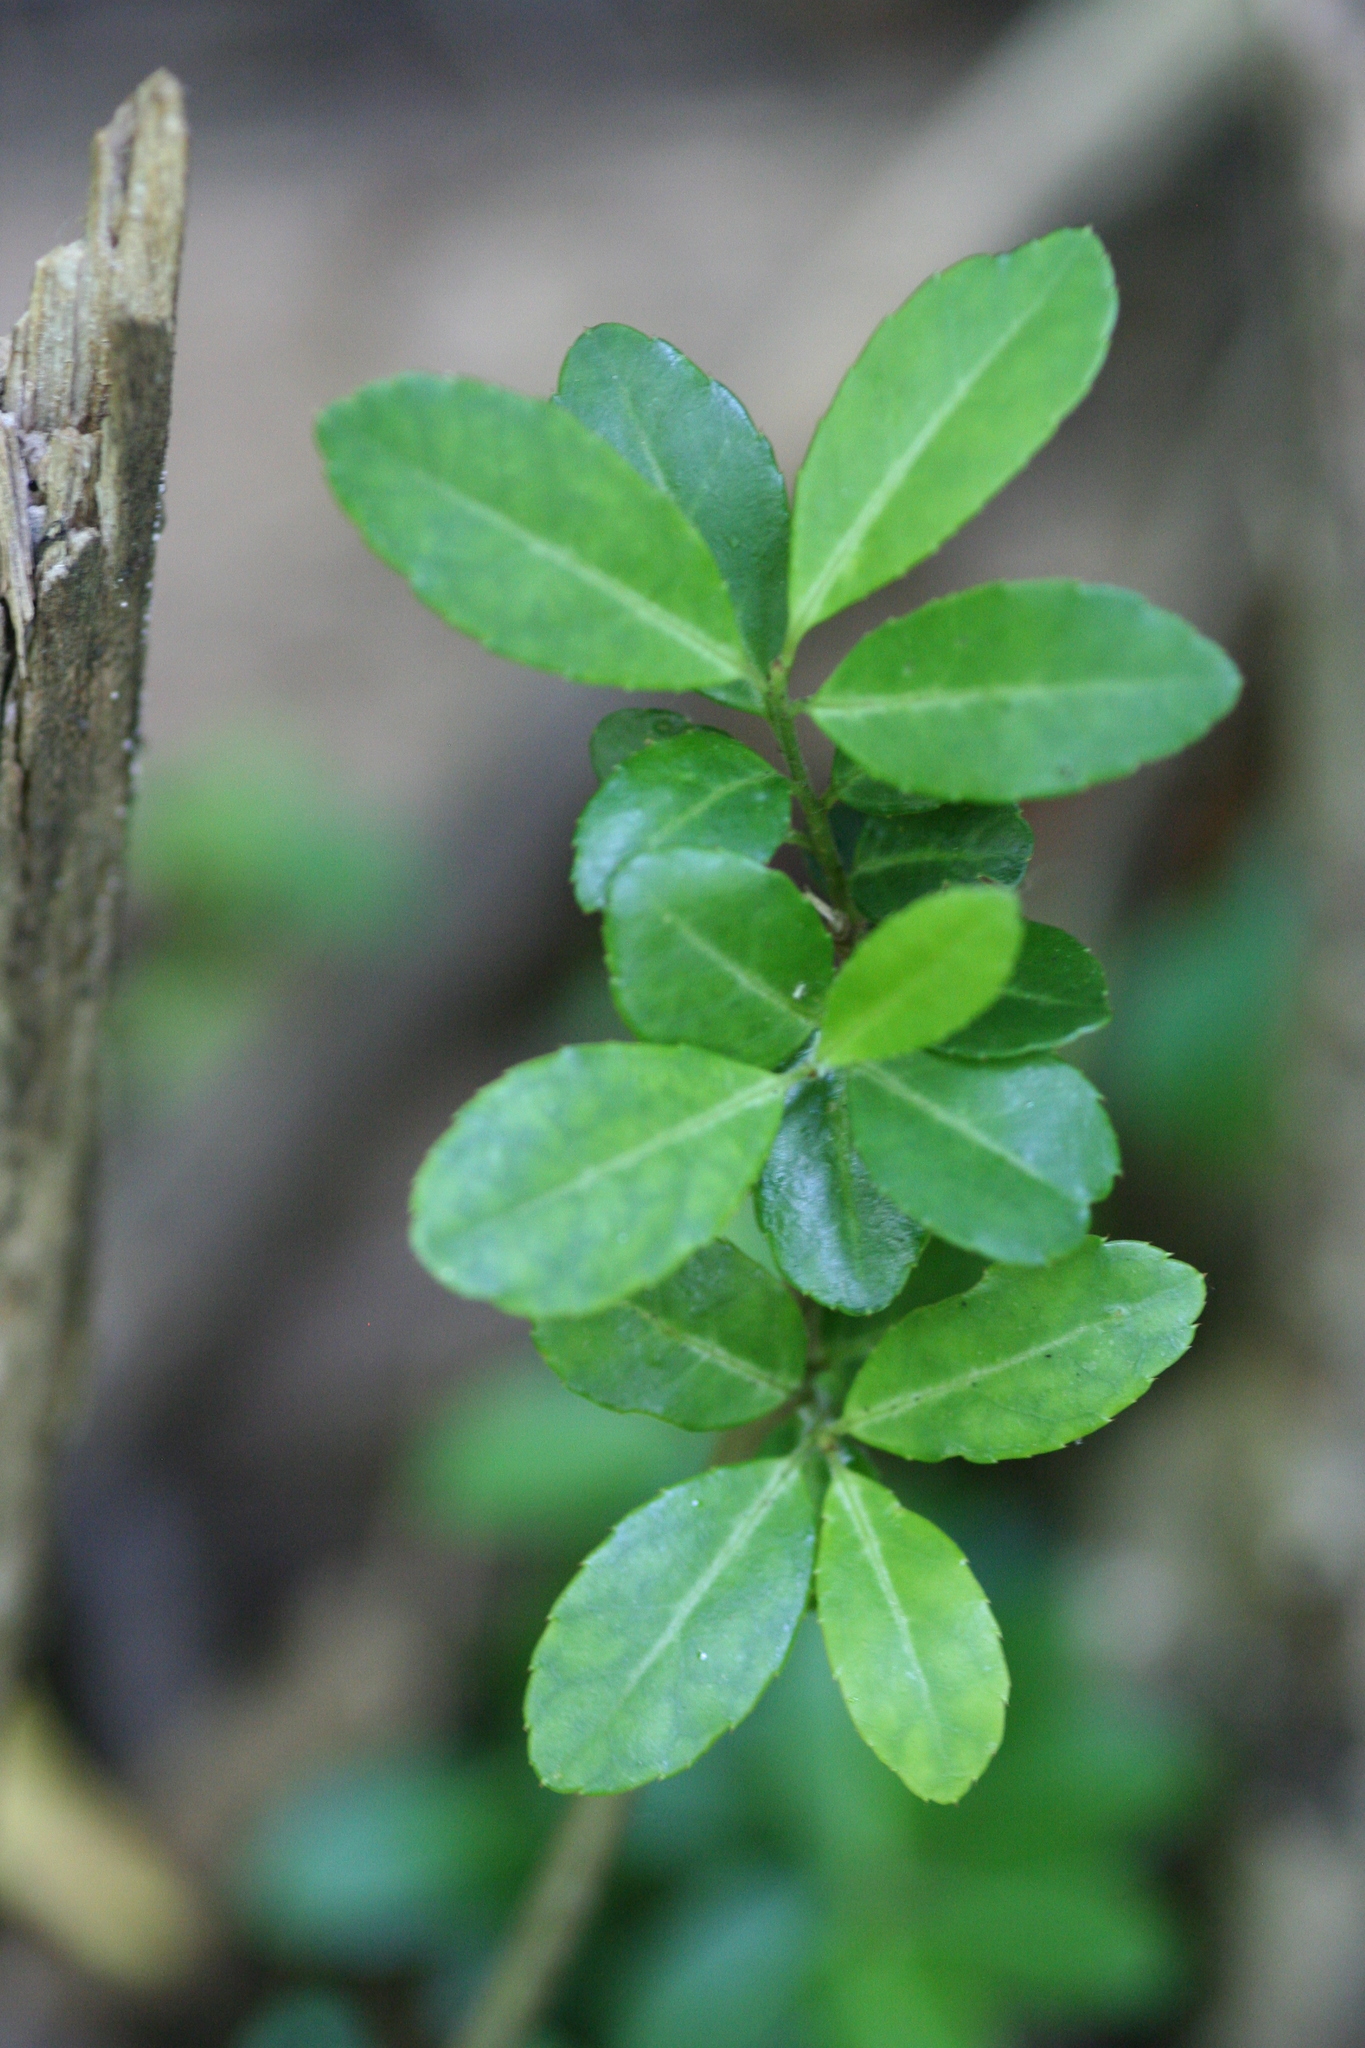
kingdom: Plantae
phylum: Tracheophyta
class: Magnoliopsida
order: Aquifoliales
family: Aquifoliaceae
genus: Ilex
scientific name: Ilex crenata
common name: Japanese holly
